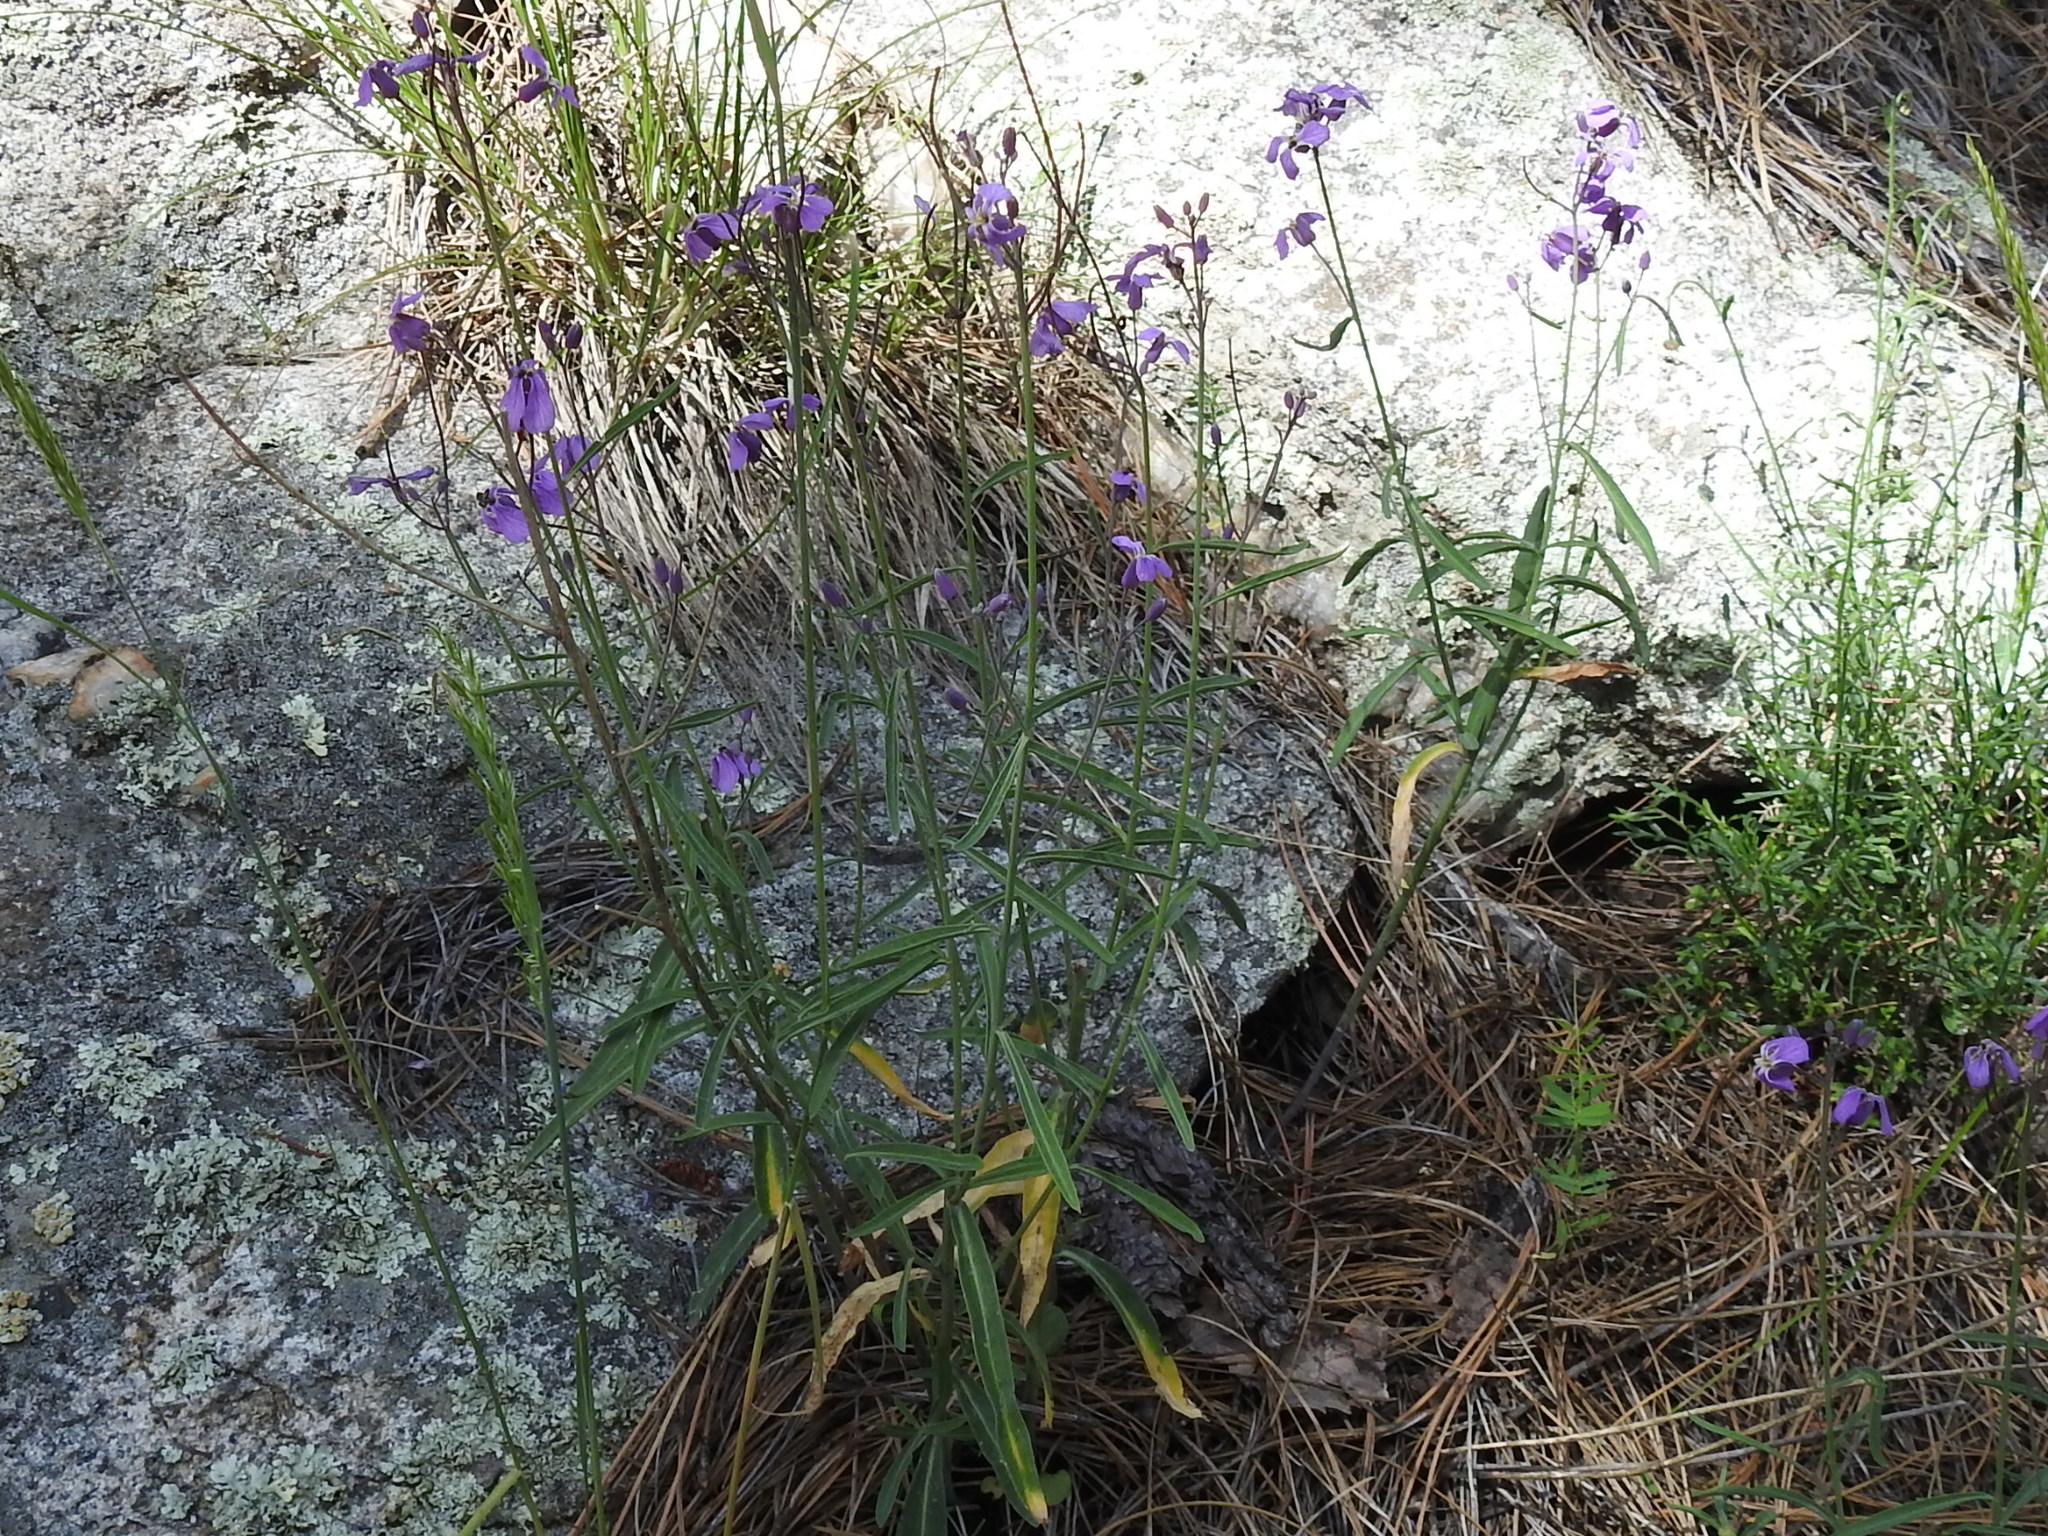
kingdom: Plantae
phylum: Tracheophyta
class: Magnoliopsida
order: Brassicales
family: Brassicaceae
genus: Hesperidanthus
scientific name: Hesperidanthus linearifolius
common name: Slim-leaf plains mustard
